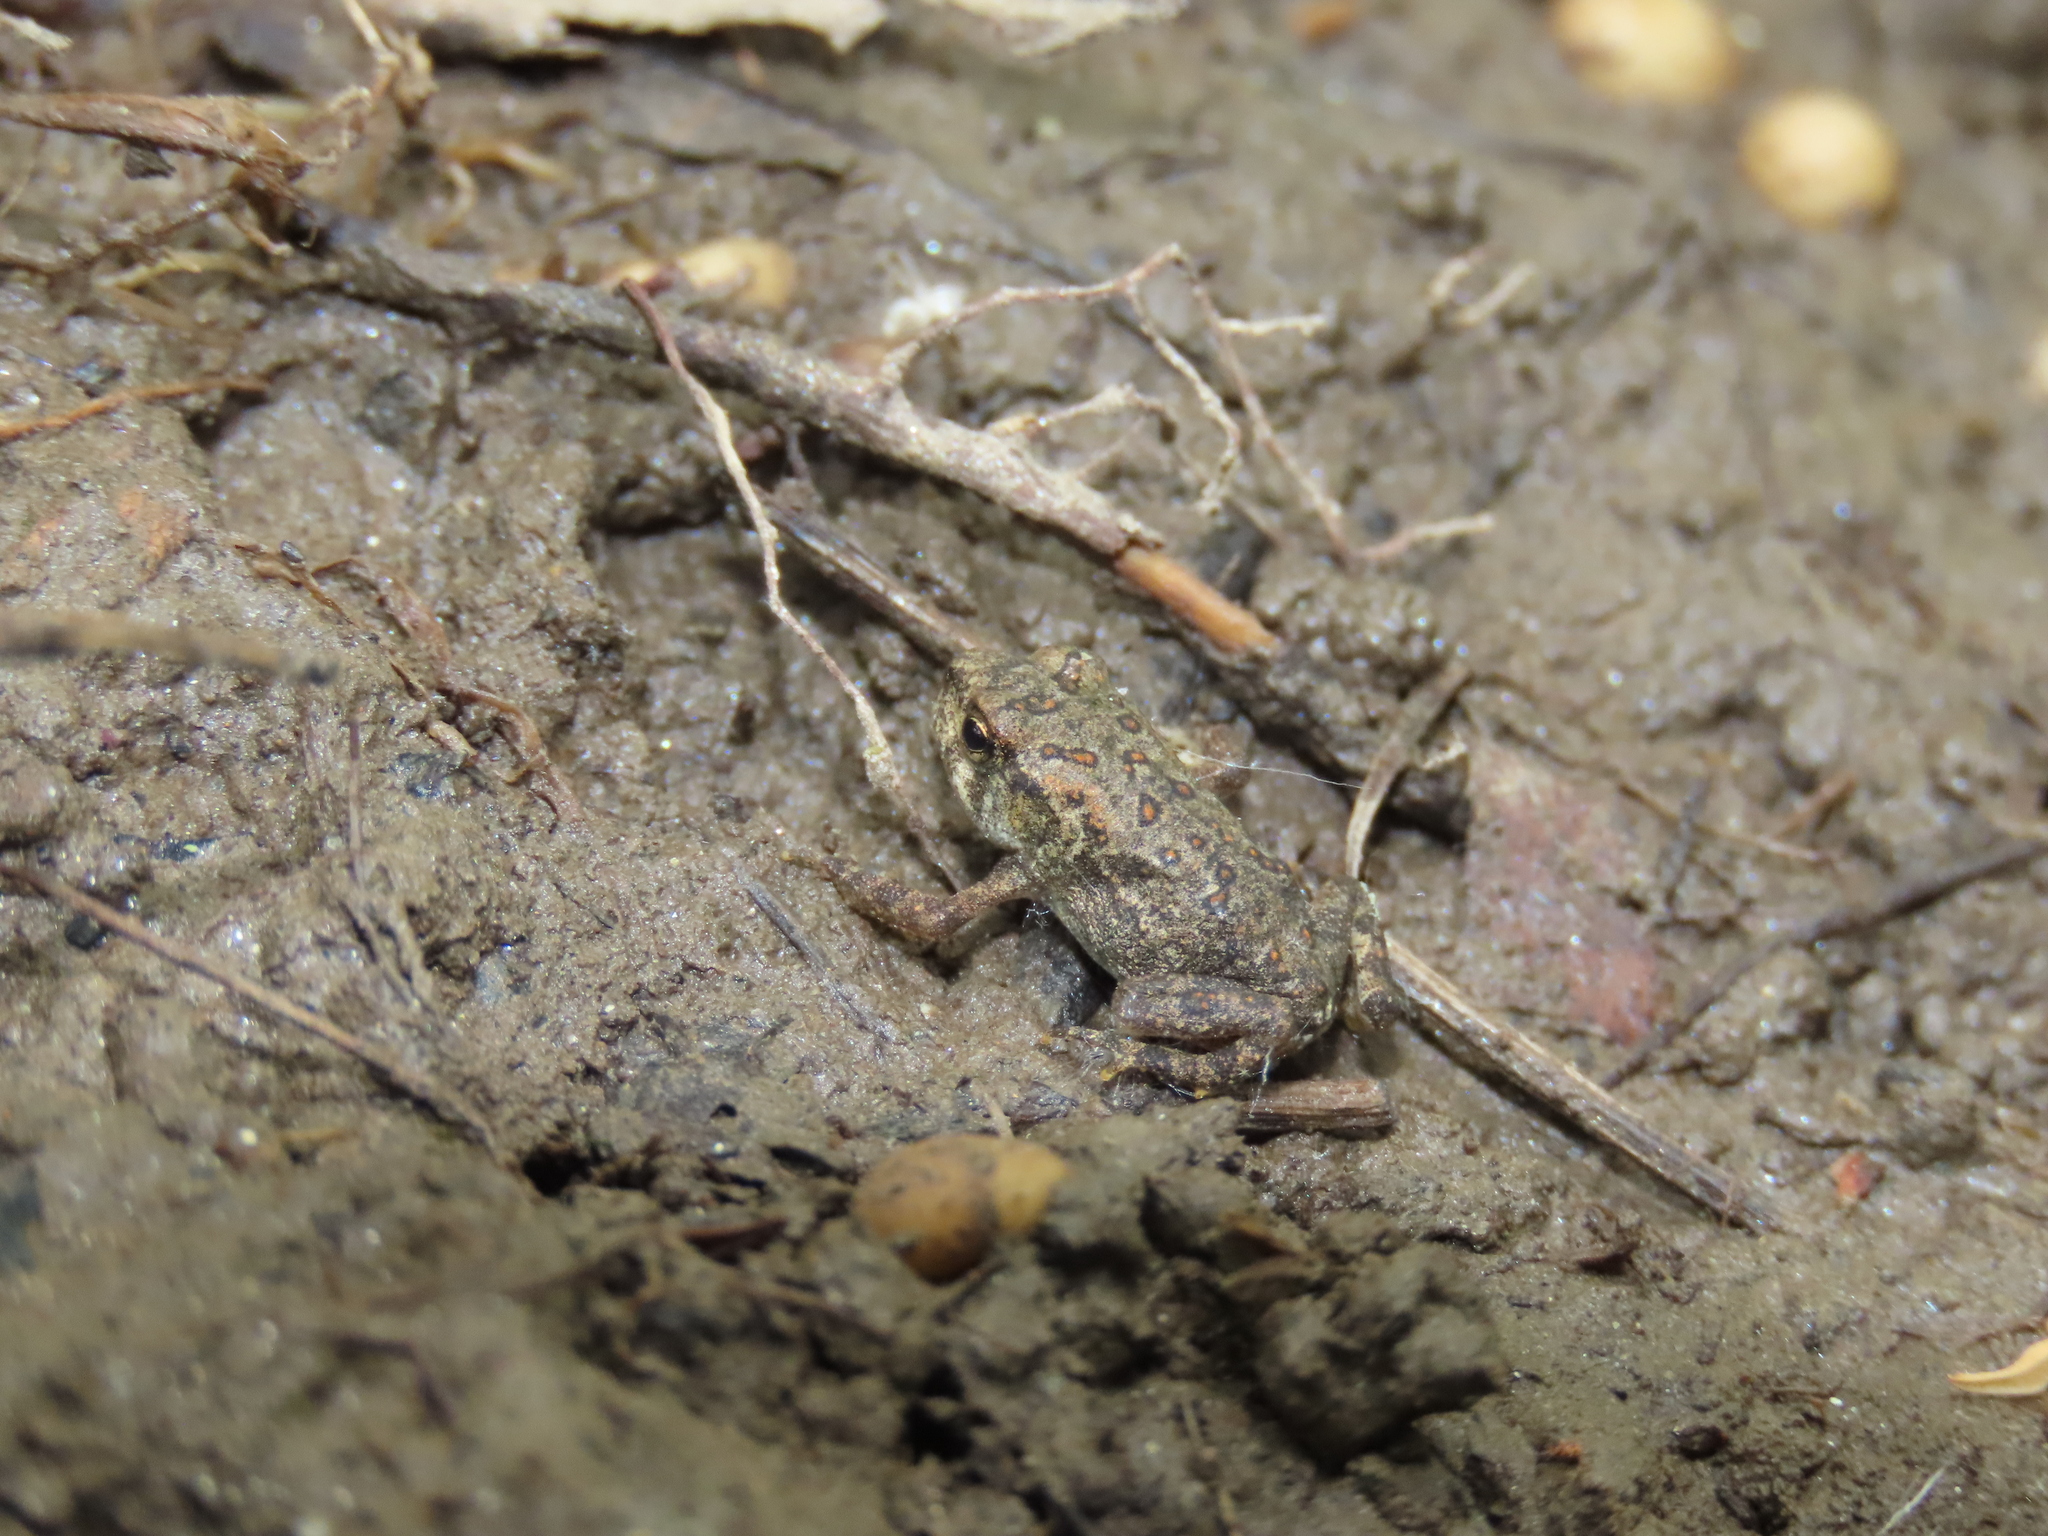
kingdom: Animalia
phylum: Chordata
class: Amphibia
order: Anura
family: Bufonidae
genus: Anaxyrus
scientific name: Anaxyrus americanus
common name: American toad
